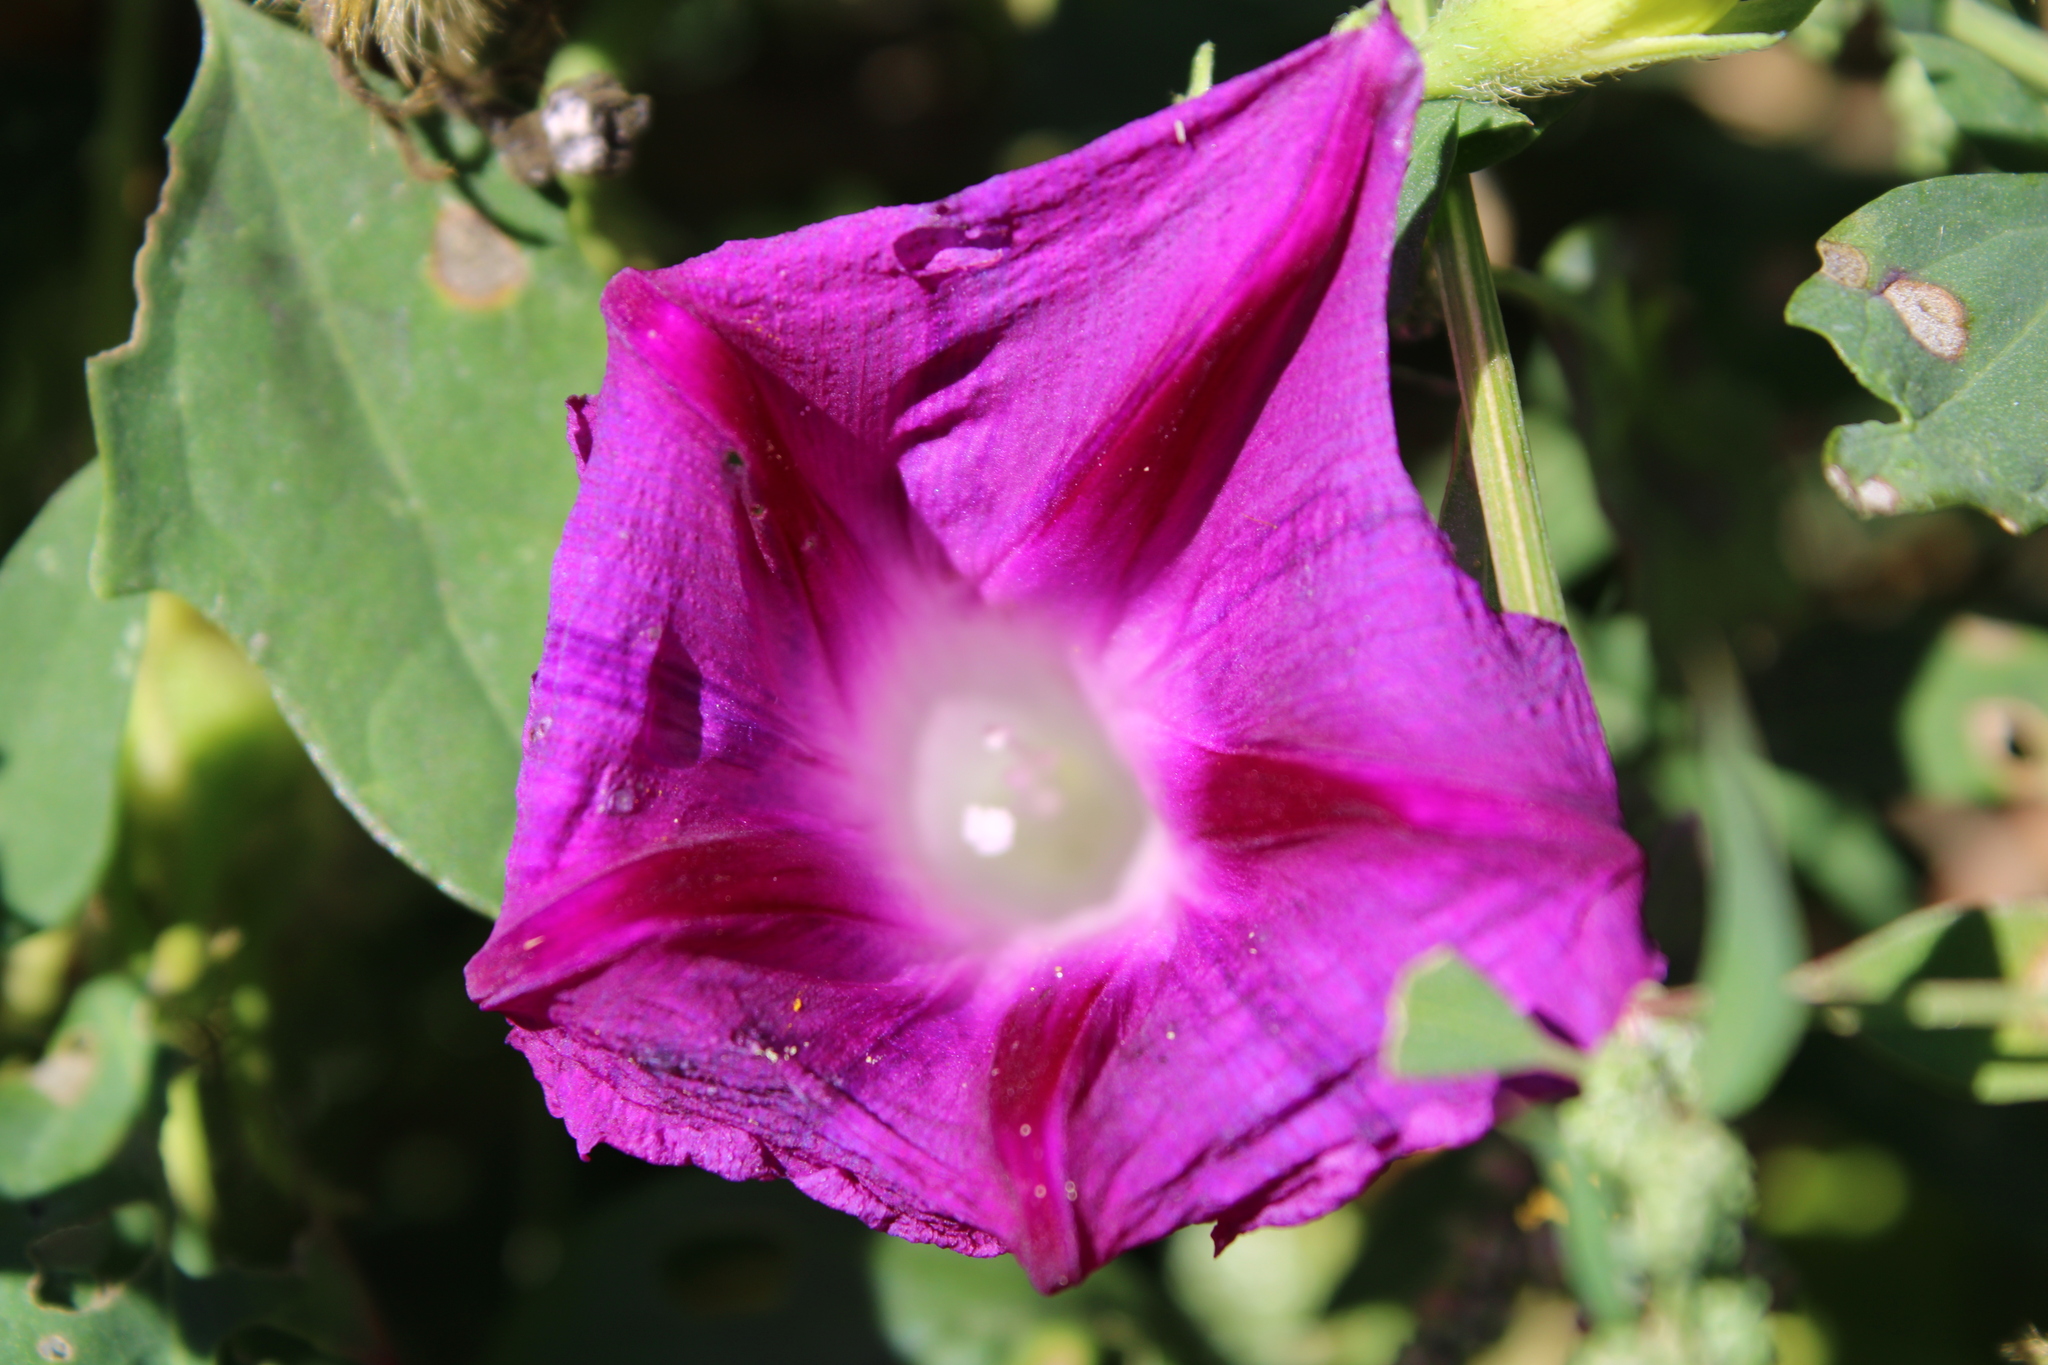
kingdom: Plantae
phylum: Tracheophyta
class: Magnoliopsida
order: Solanales
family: Convolvulaceae
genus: Ipomoea
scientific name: Ipomoea purpurea
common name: Common morning-glory
